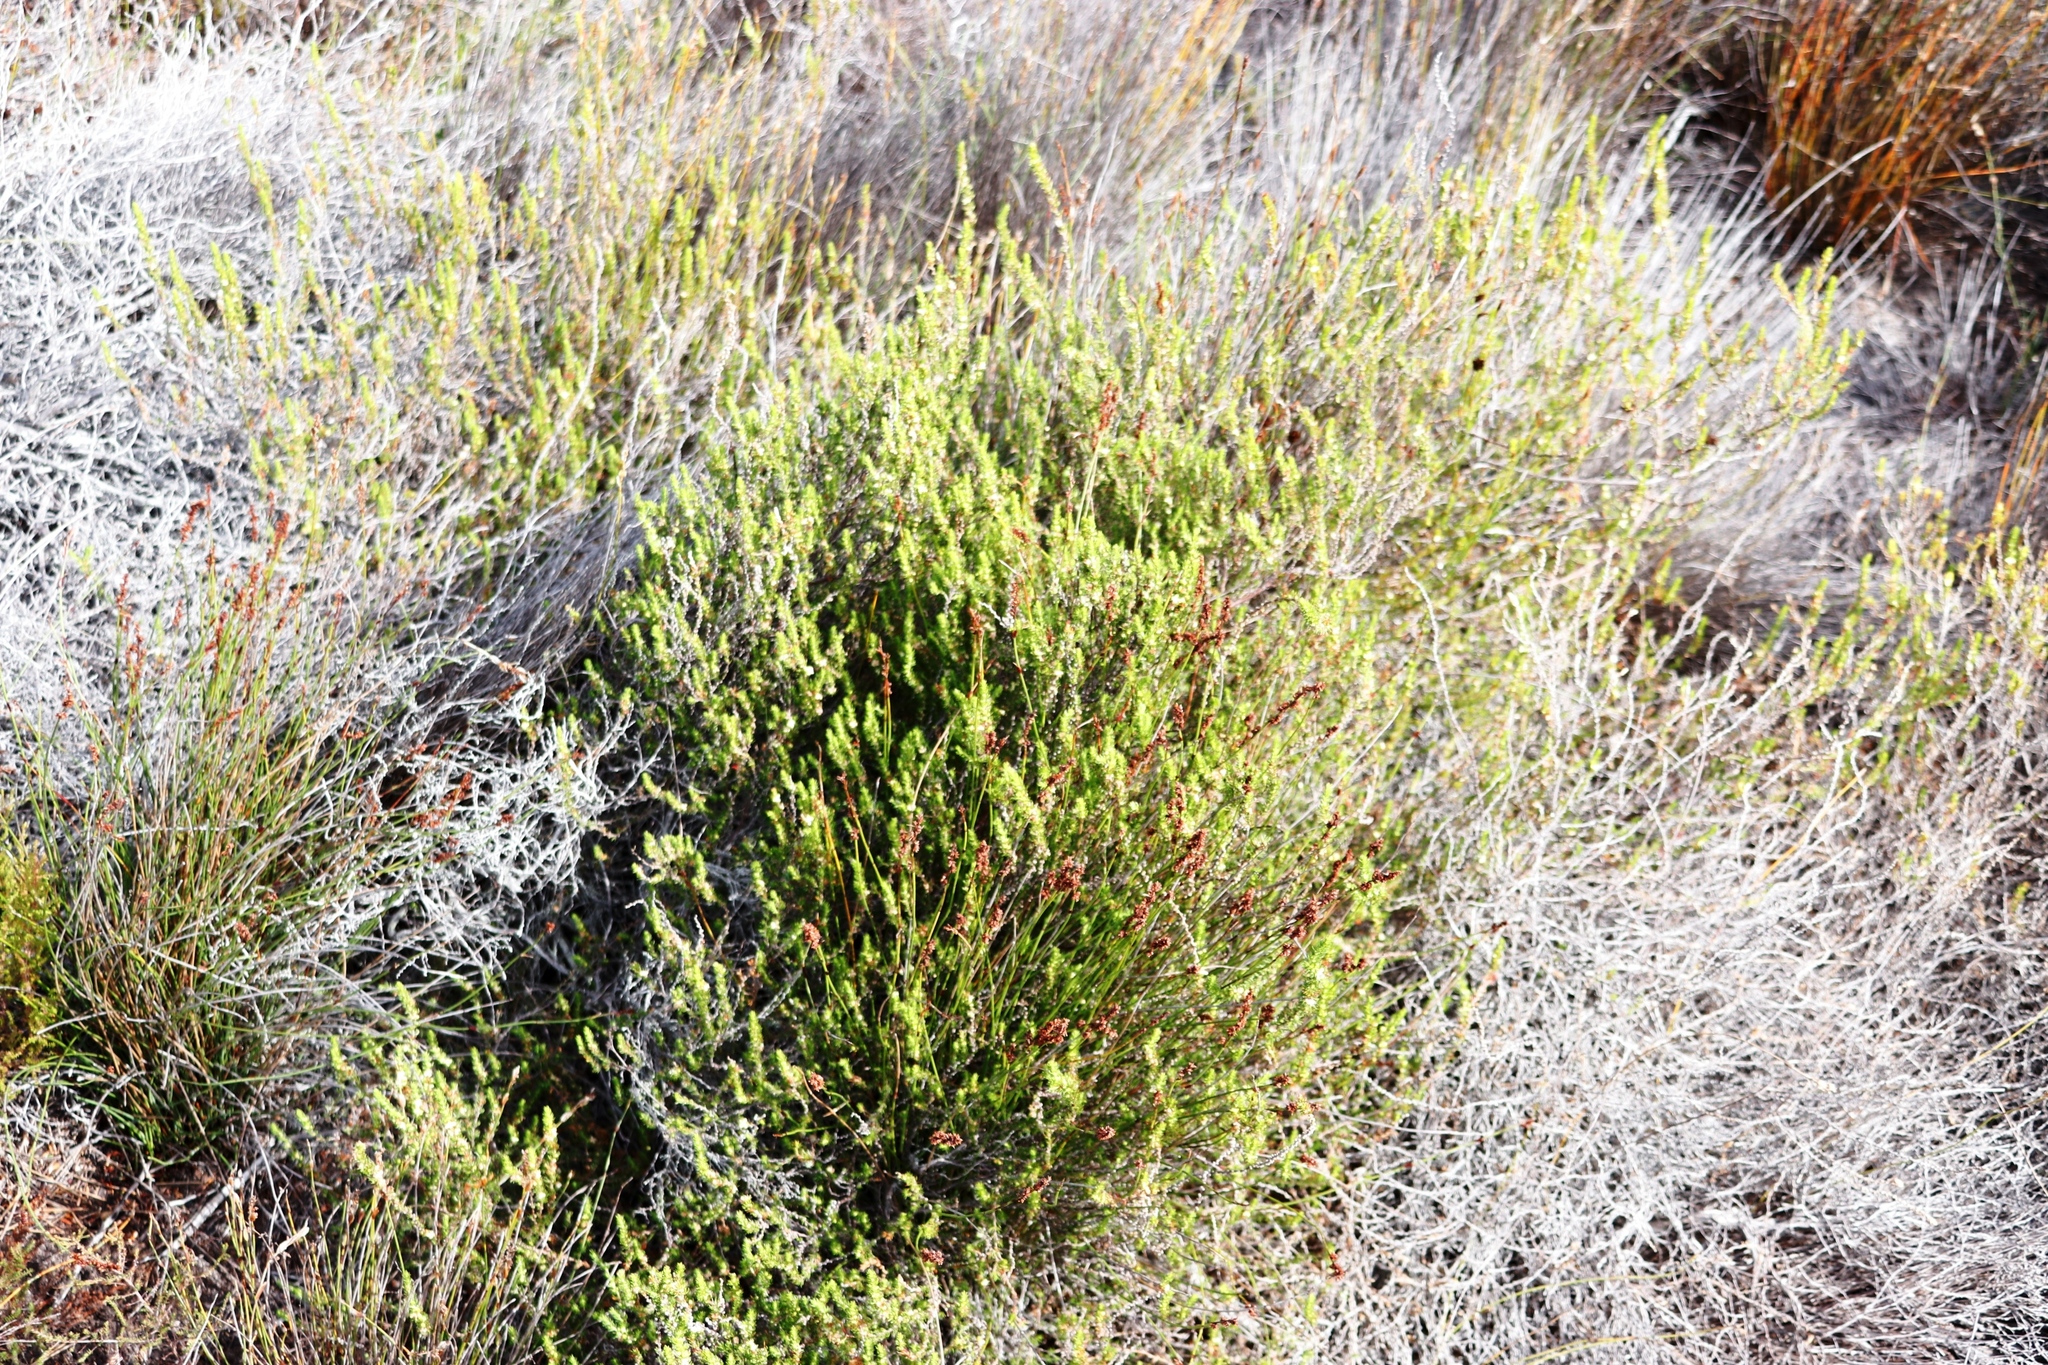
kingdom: Plantae
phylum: Tracheophyta
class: Magnoliopsida
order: Rosales
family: Rosaceae
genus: Cliffortia
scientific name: Cliffortia subsetacea
